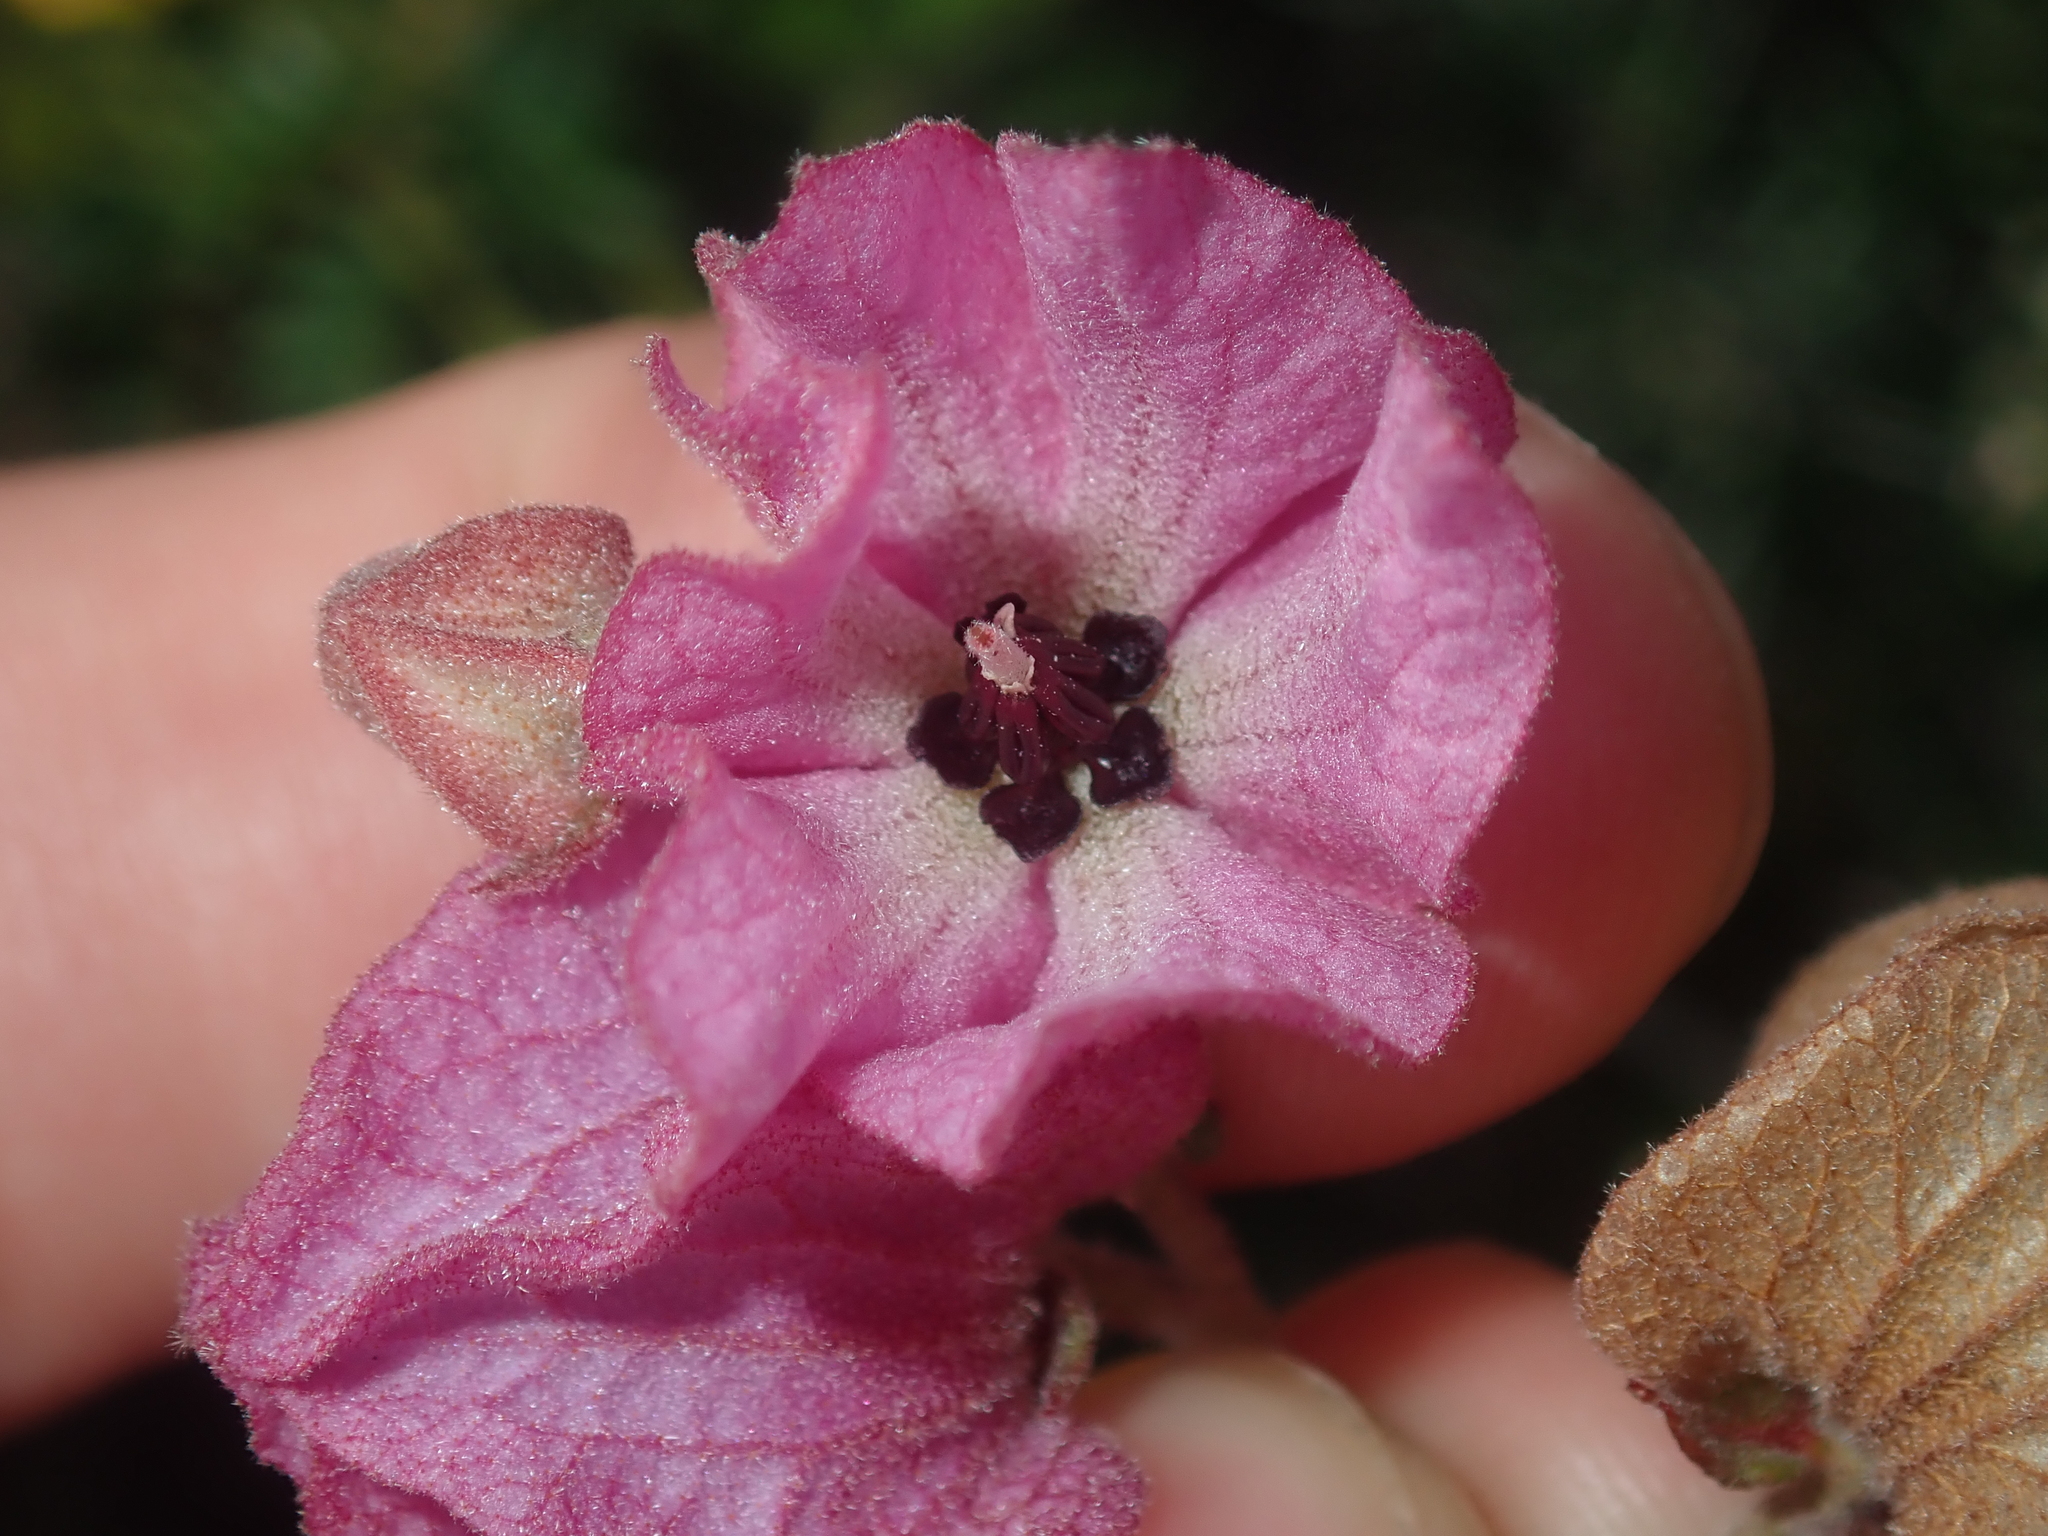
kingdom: Plantae
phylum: Tracheophyta
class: Magnoliopsida
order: Malvales
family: Malvaceae
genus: Guichenotia
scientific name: Guichenotia sarotes
